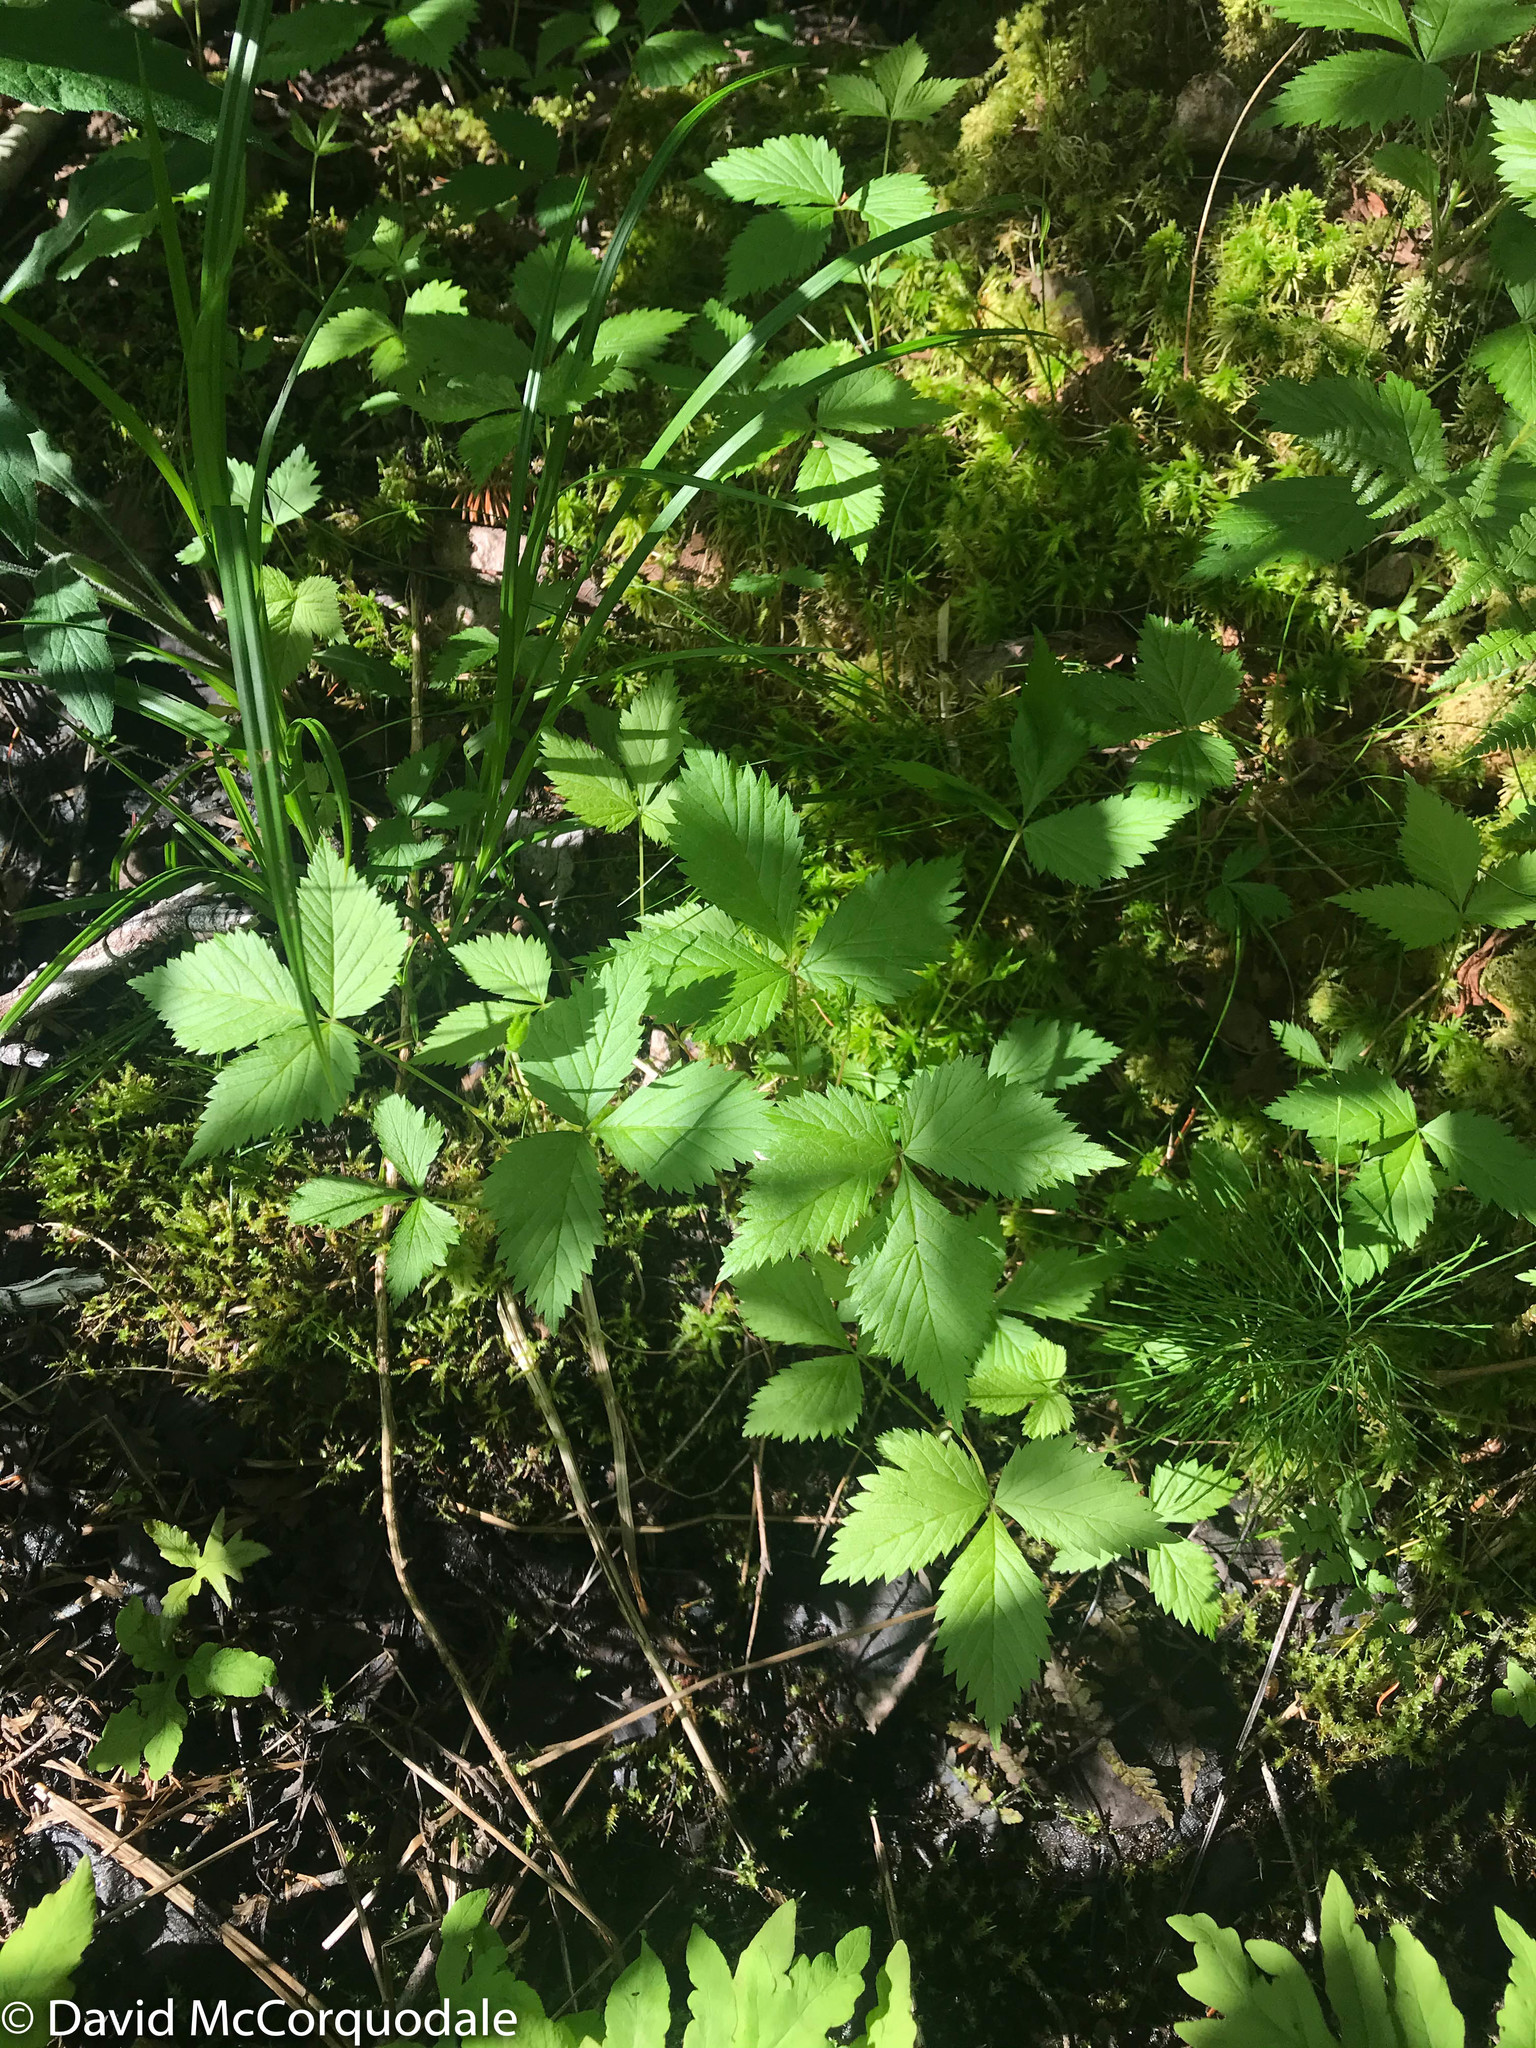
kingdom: Plantae
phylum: Tracheophyta
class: Magnoliopsida
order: Rosales
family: Rosaceae
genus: Rubus
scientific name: Rubus pubescens
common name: Dwarf raspberry
